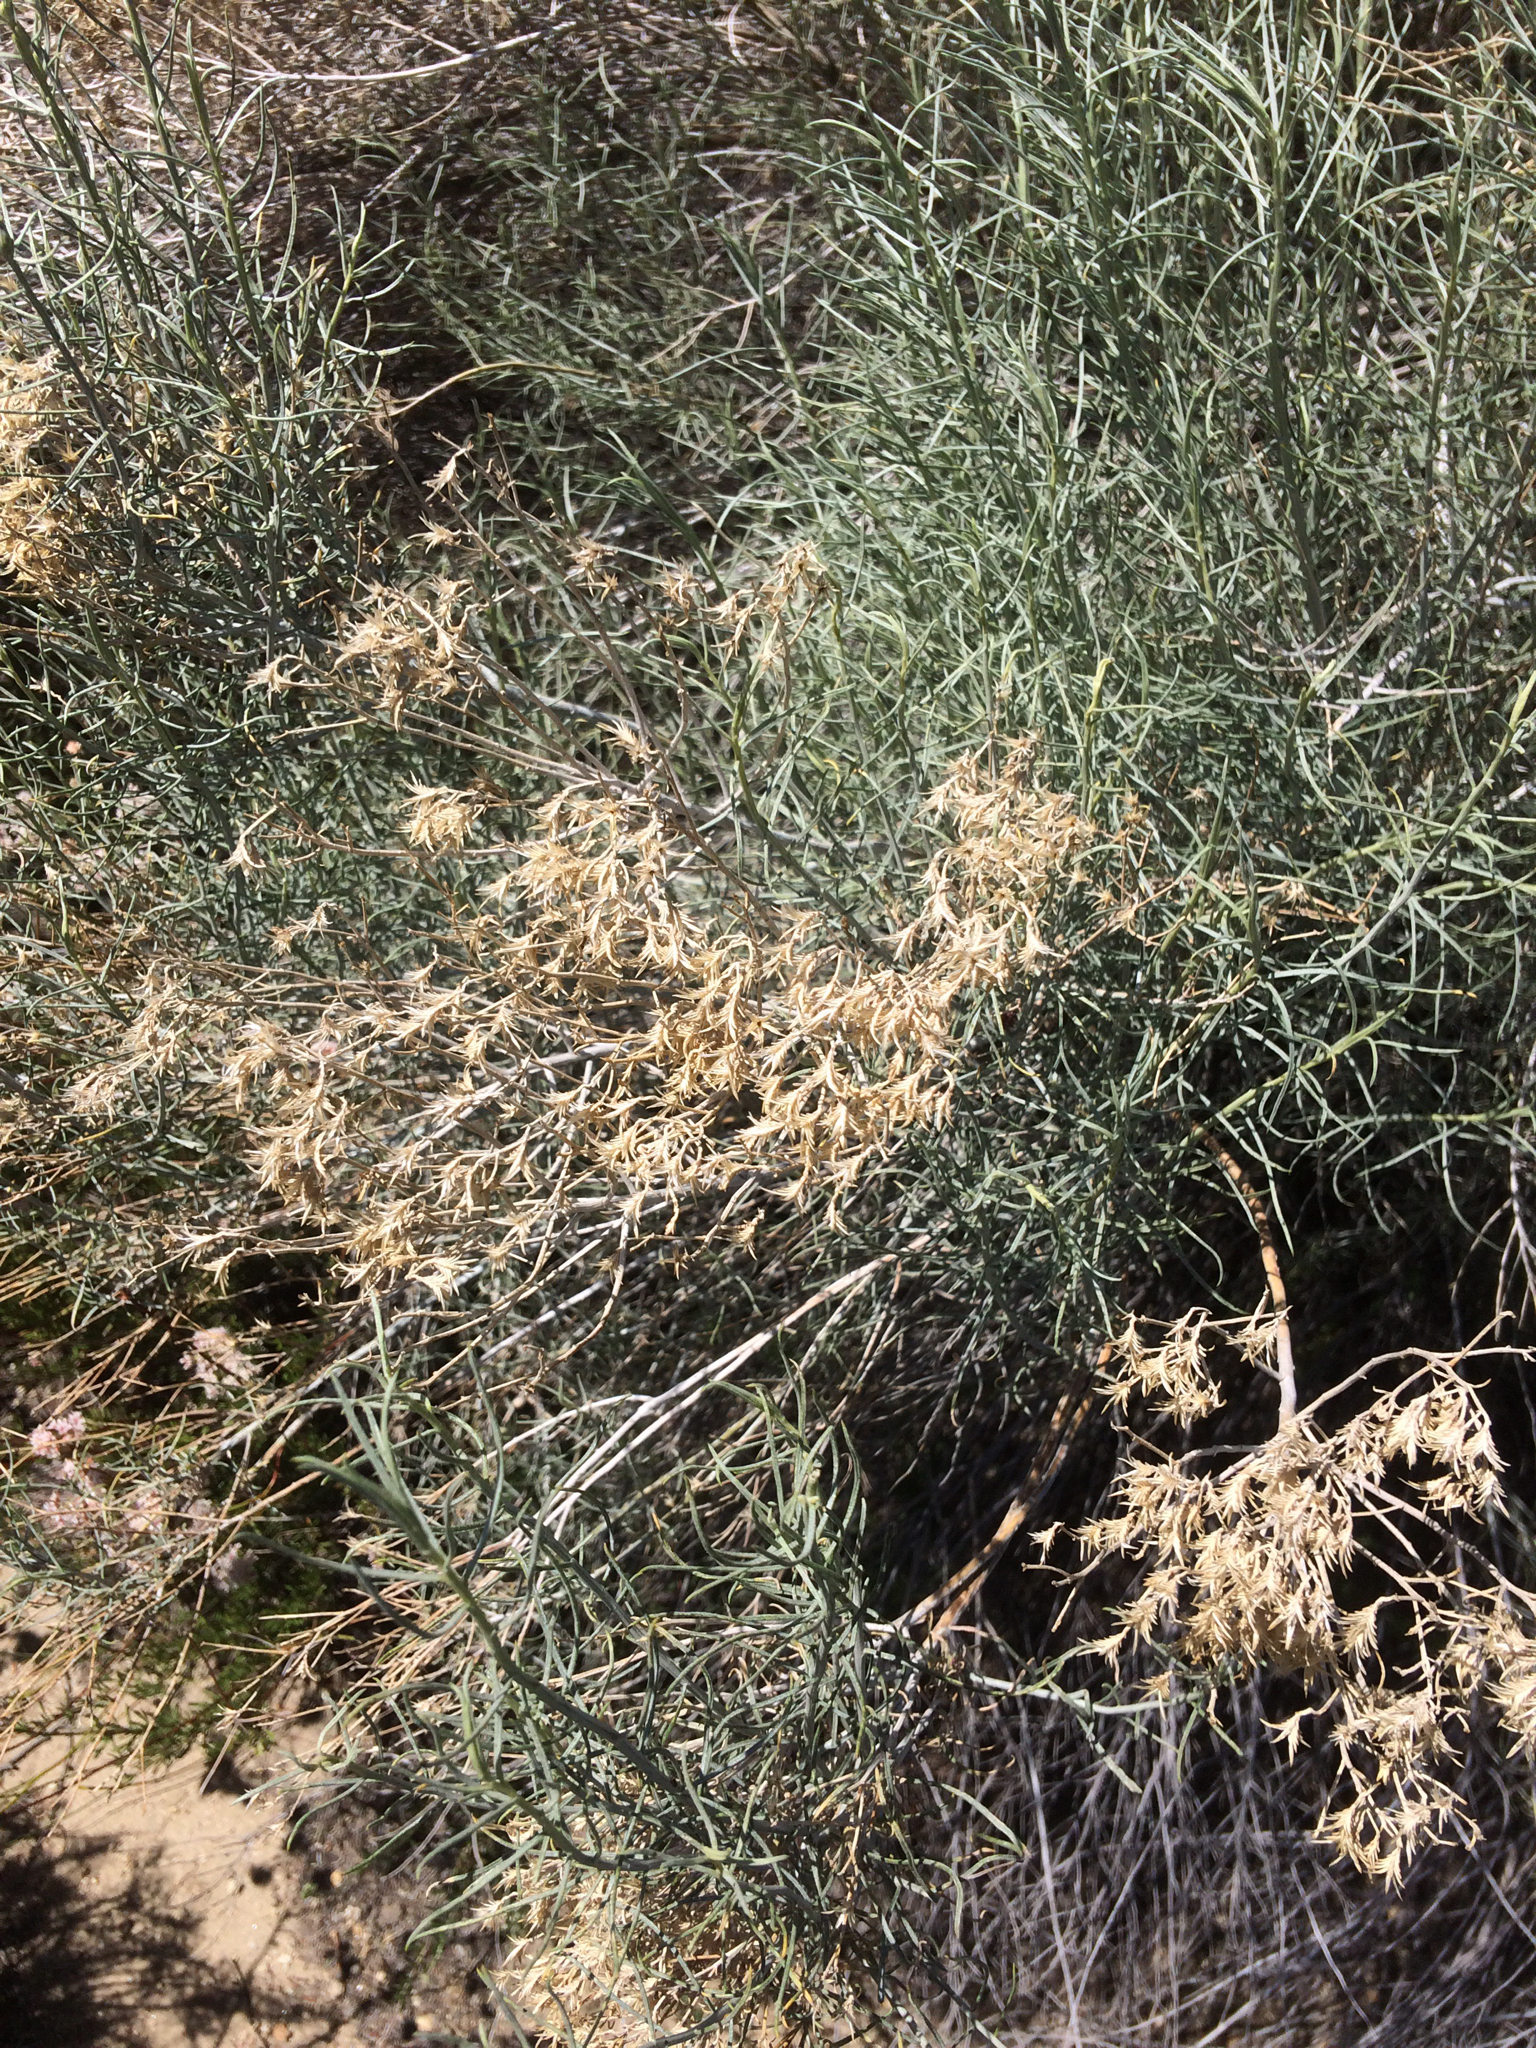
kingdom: Plantae
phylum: Tracheophyta
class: Magnoliopsida
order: Asterales
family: Asteraceae
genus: Ericameria
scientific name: Ericameria nauseosa
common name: Rubber rabbitbrush
